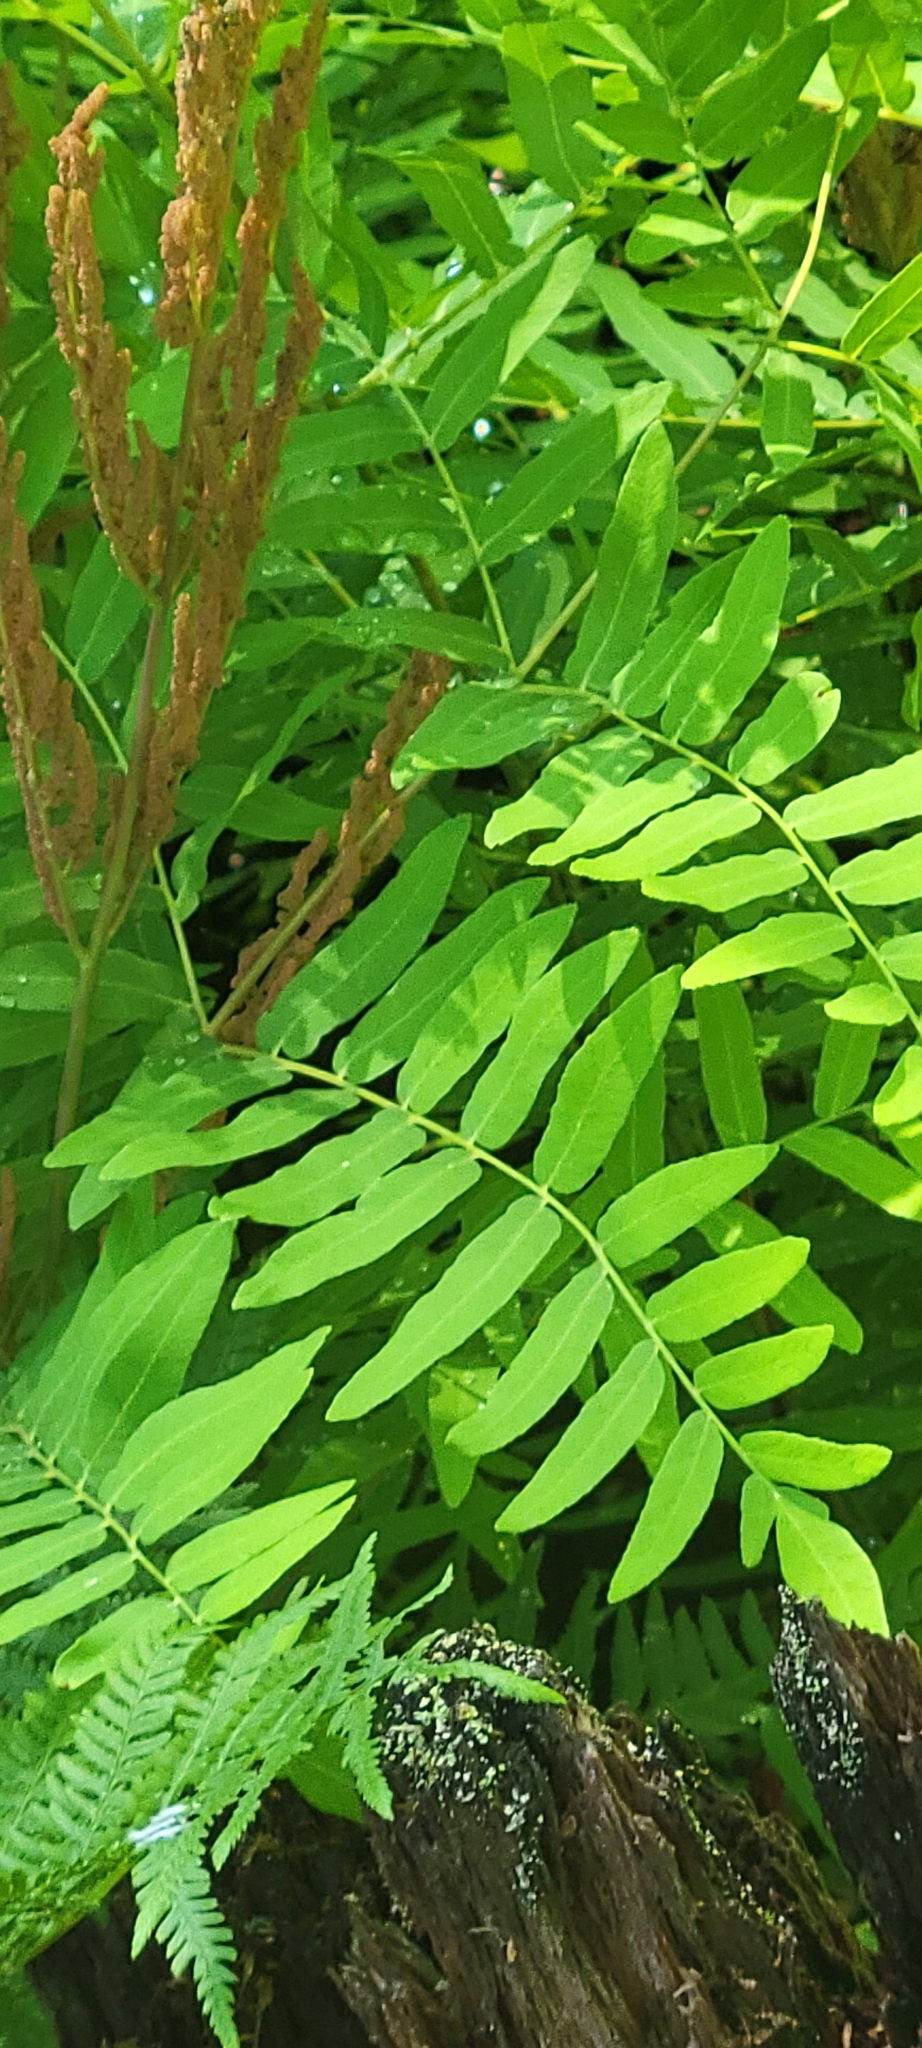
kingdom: Plantae
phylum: Tracheophyta
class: Polypodiopsida
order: Osmundales
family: Osmundaceae
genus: Osmunda
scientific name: Osmunda spectabilis
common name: American royal fern
